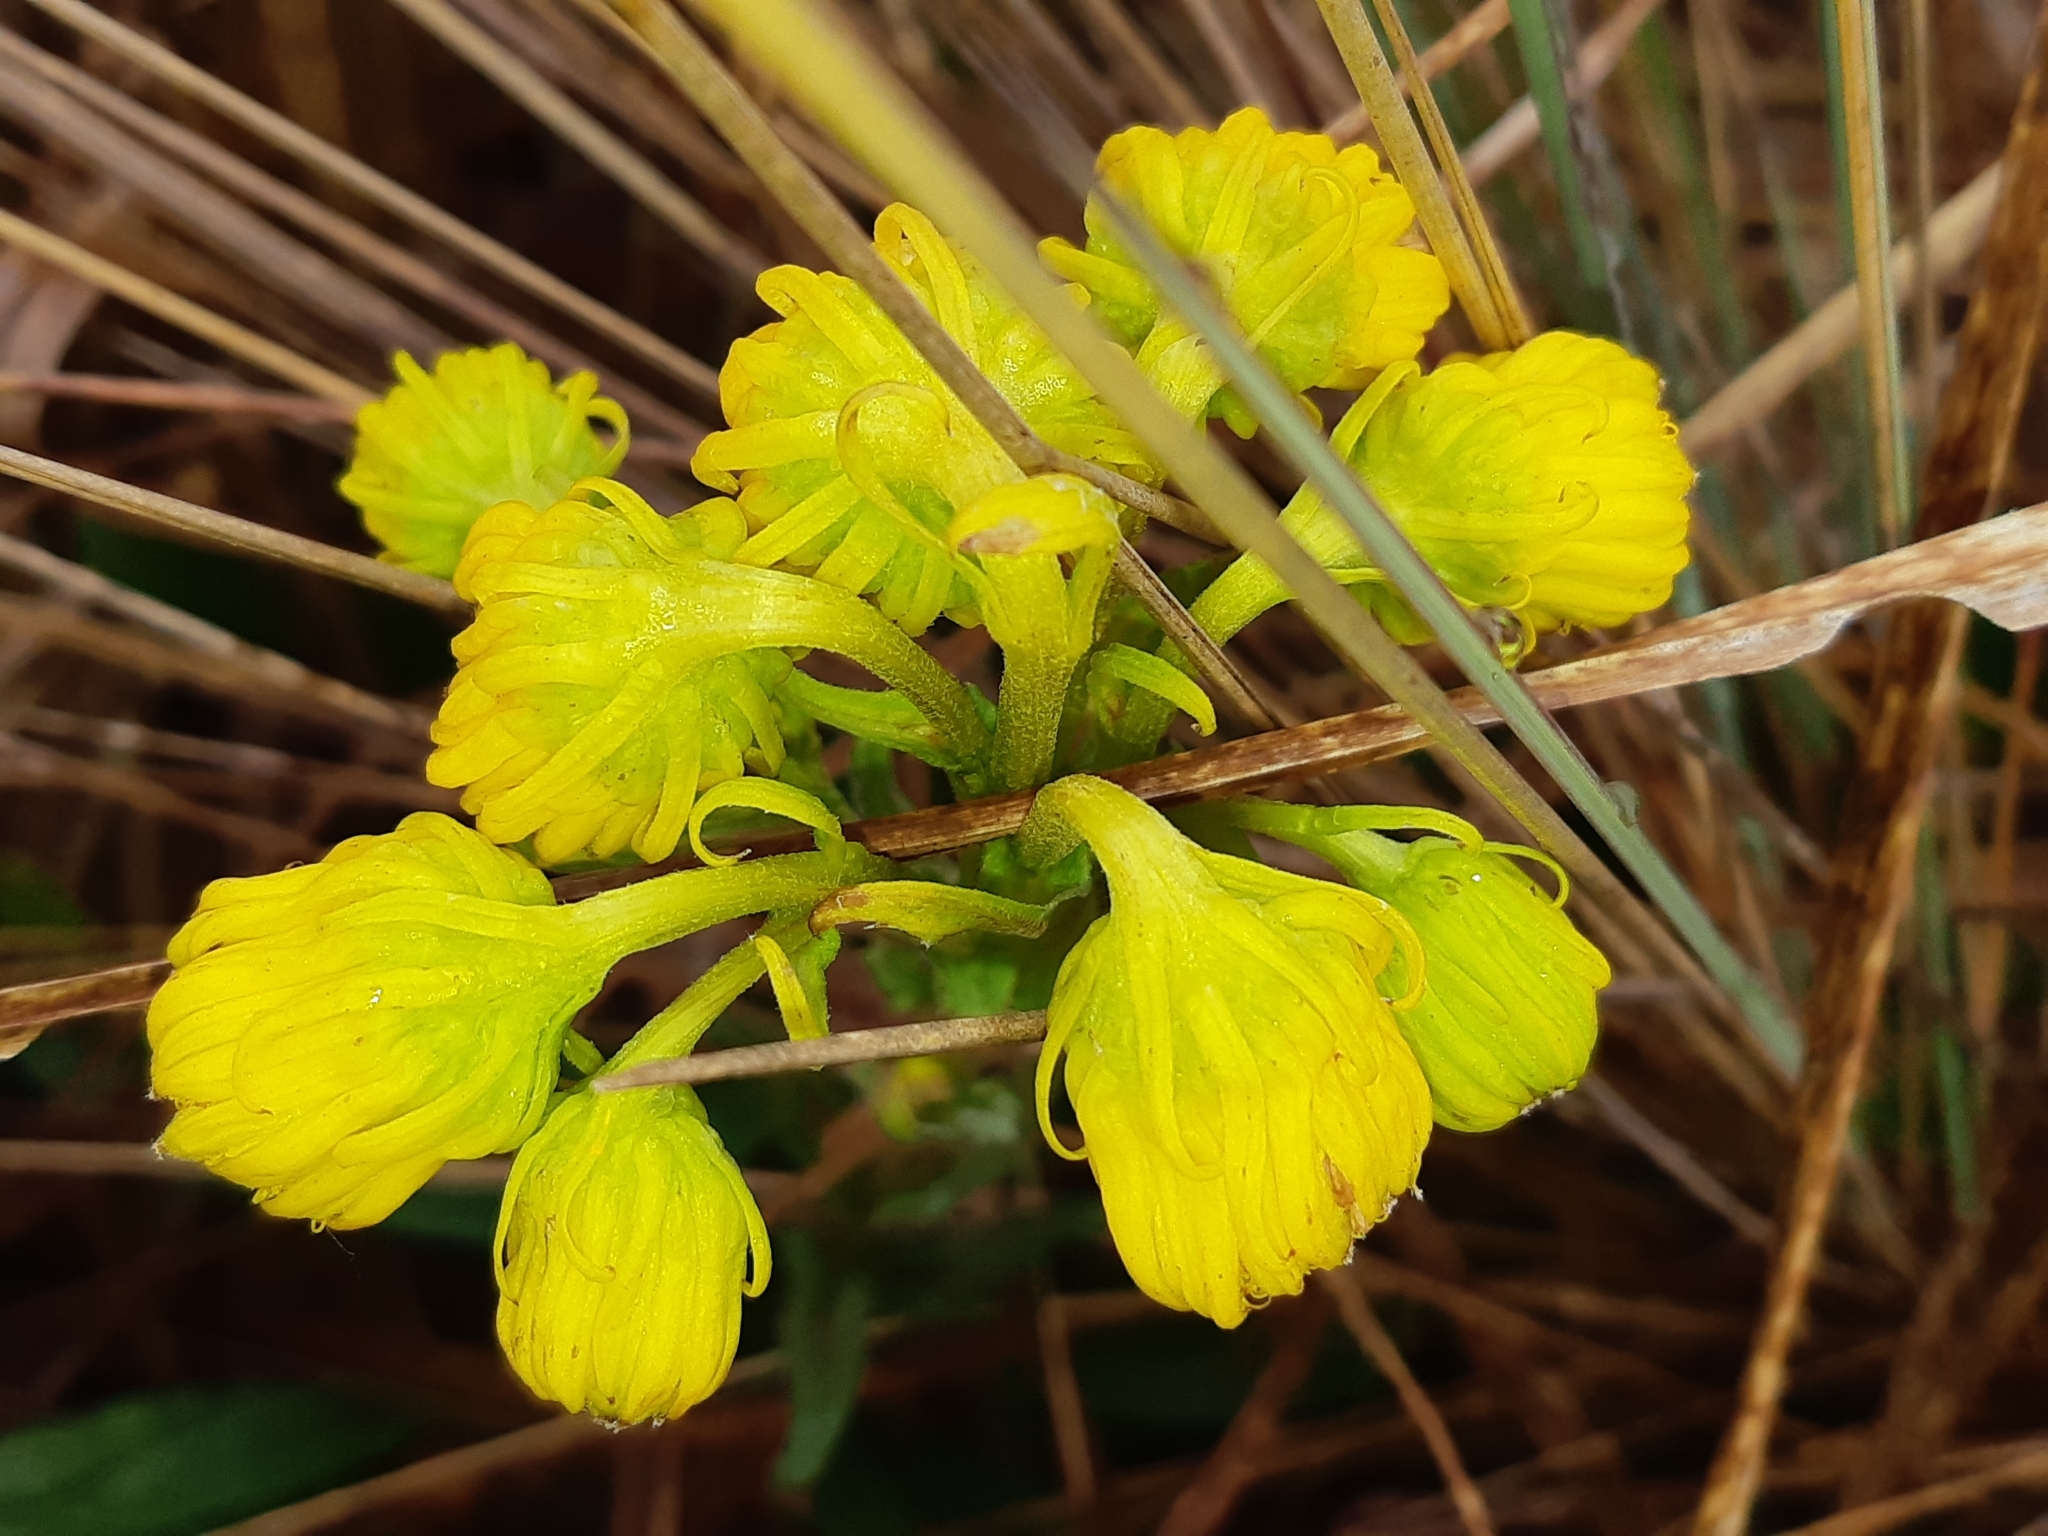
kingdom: Plantae
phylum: Tracheophyta
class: Magnoliopsida
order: Asterales
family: Asteraceae
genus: Senecio
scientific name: Senecio chionogeton
